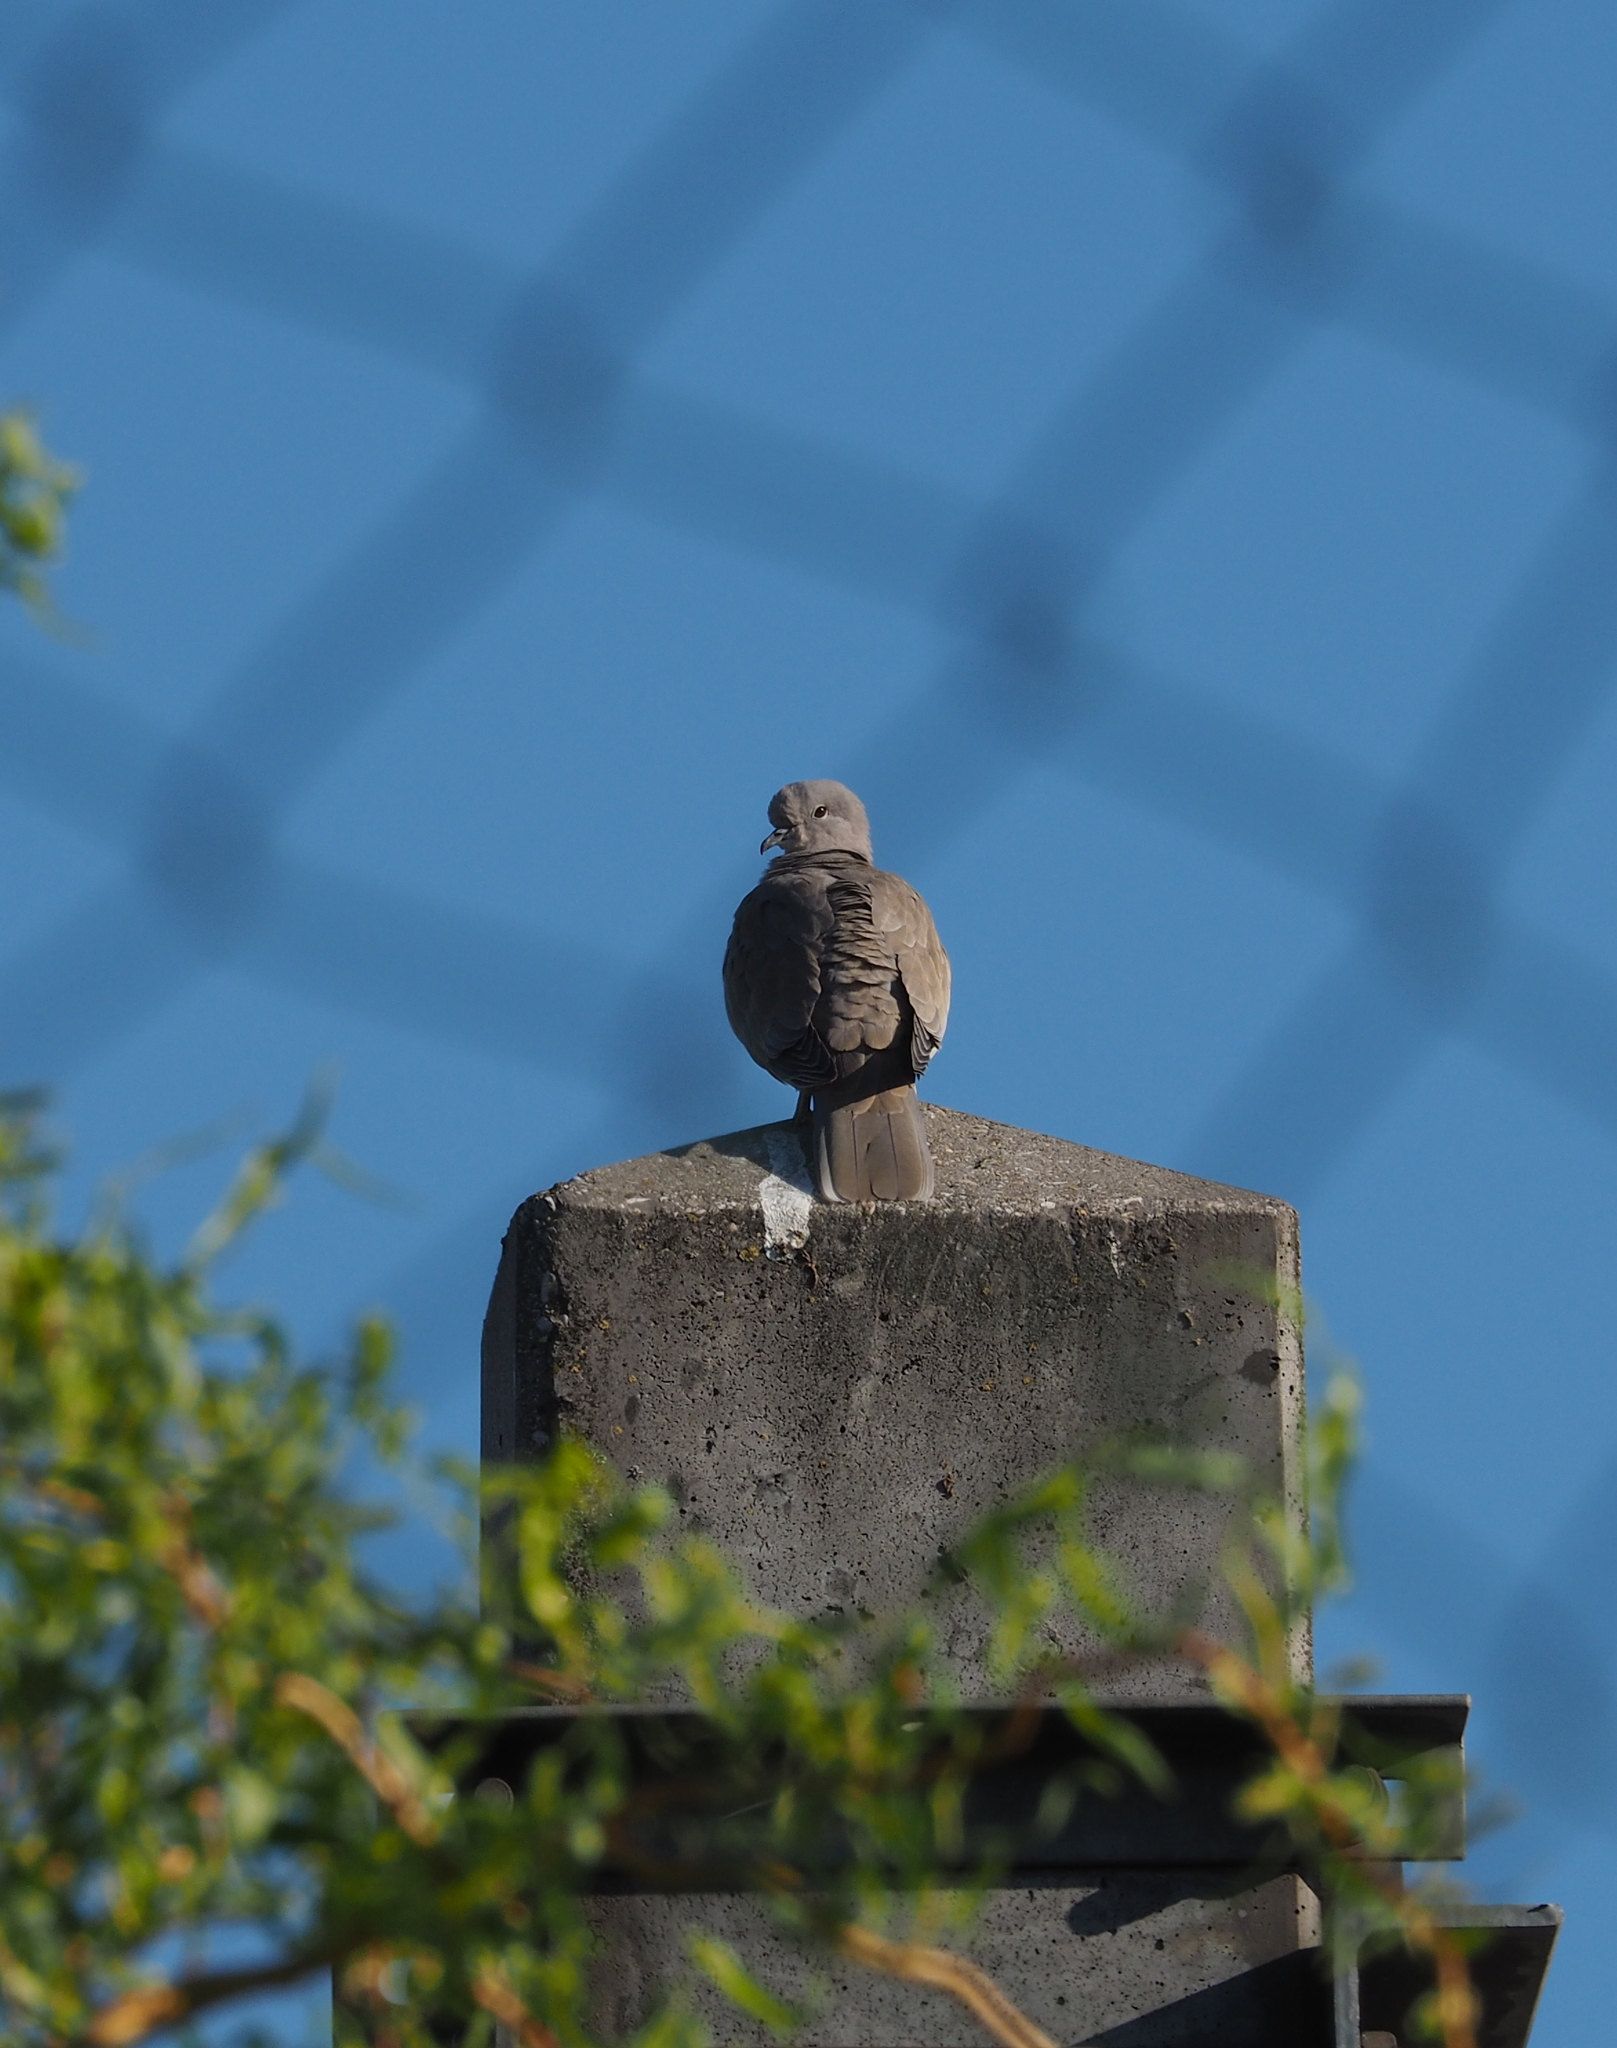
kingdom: Animalia
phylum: Chordata
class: Aves
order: Columbiformes
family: Columbidae
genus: Streptopelia
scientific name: Streptopelia decaocto
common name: Eurasian collared dove
